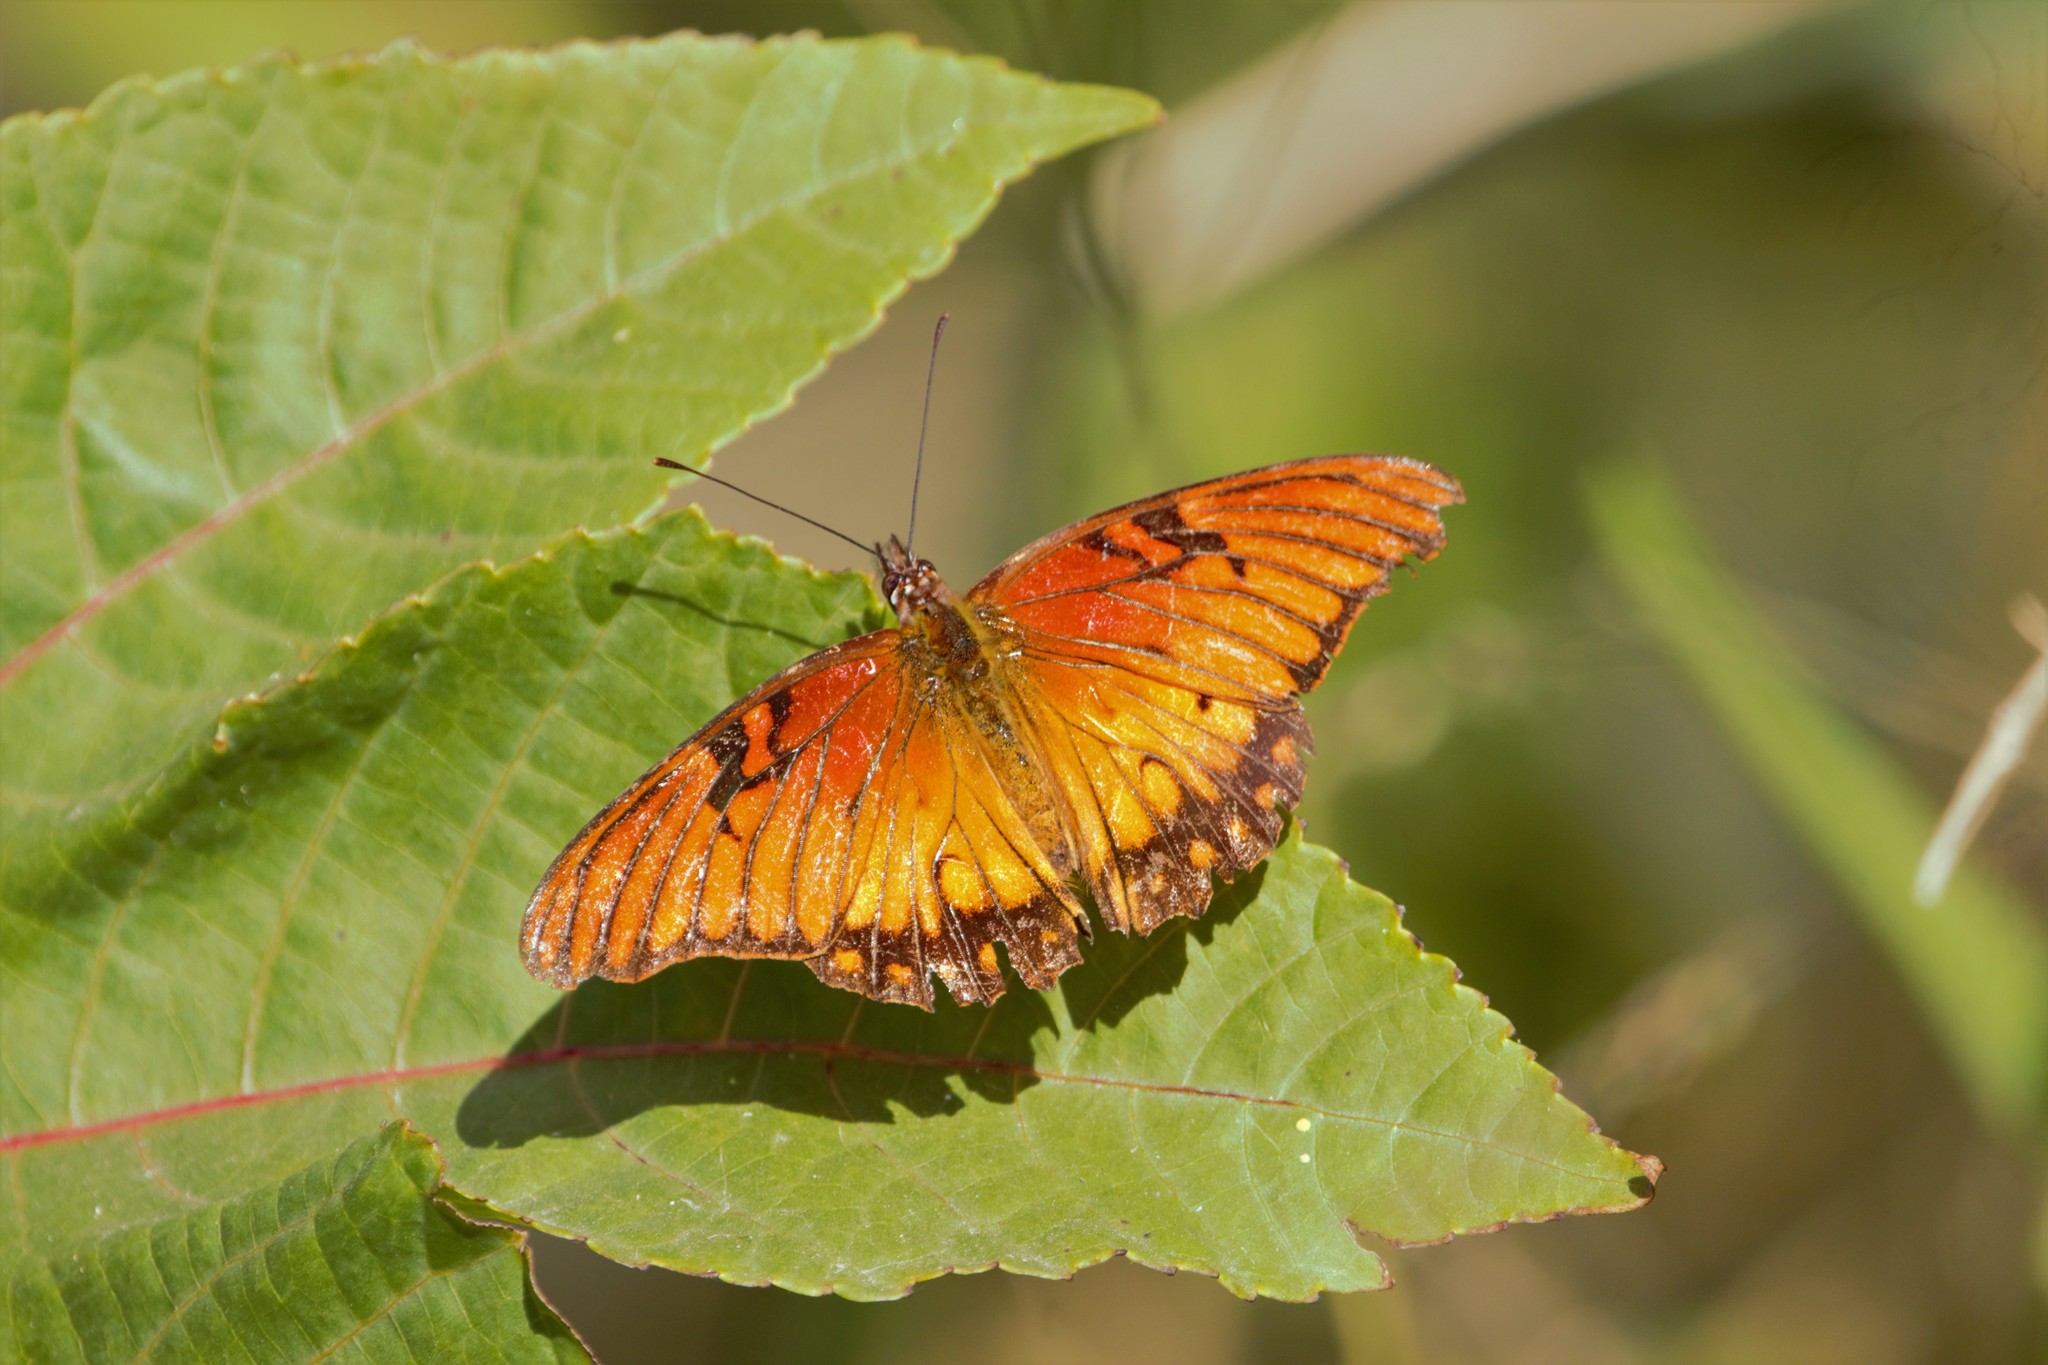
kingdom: Animalia
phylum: Arthropoda
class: Insecta
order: Lepidoptera
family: Nymphalidae
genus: Dione
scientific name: Dione moneta
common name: Mexican silverspot
